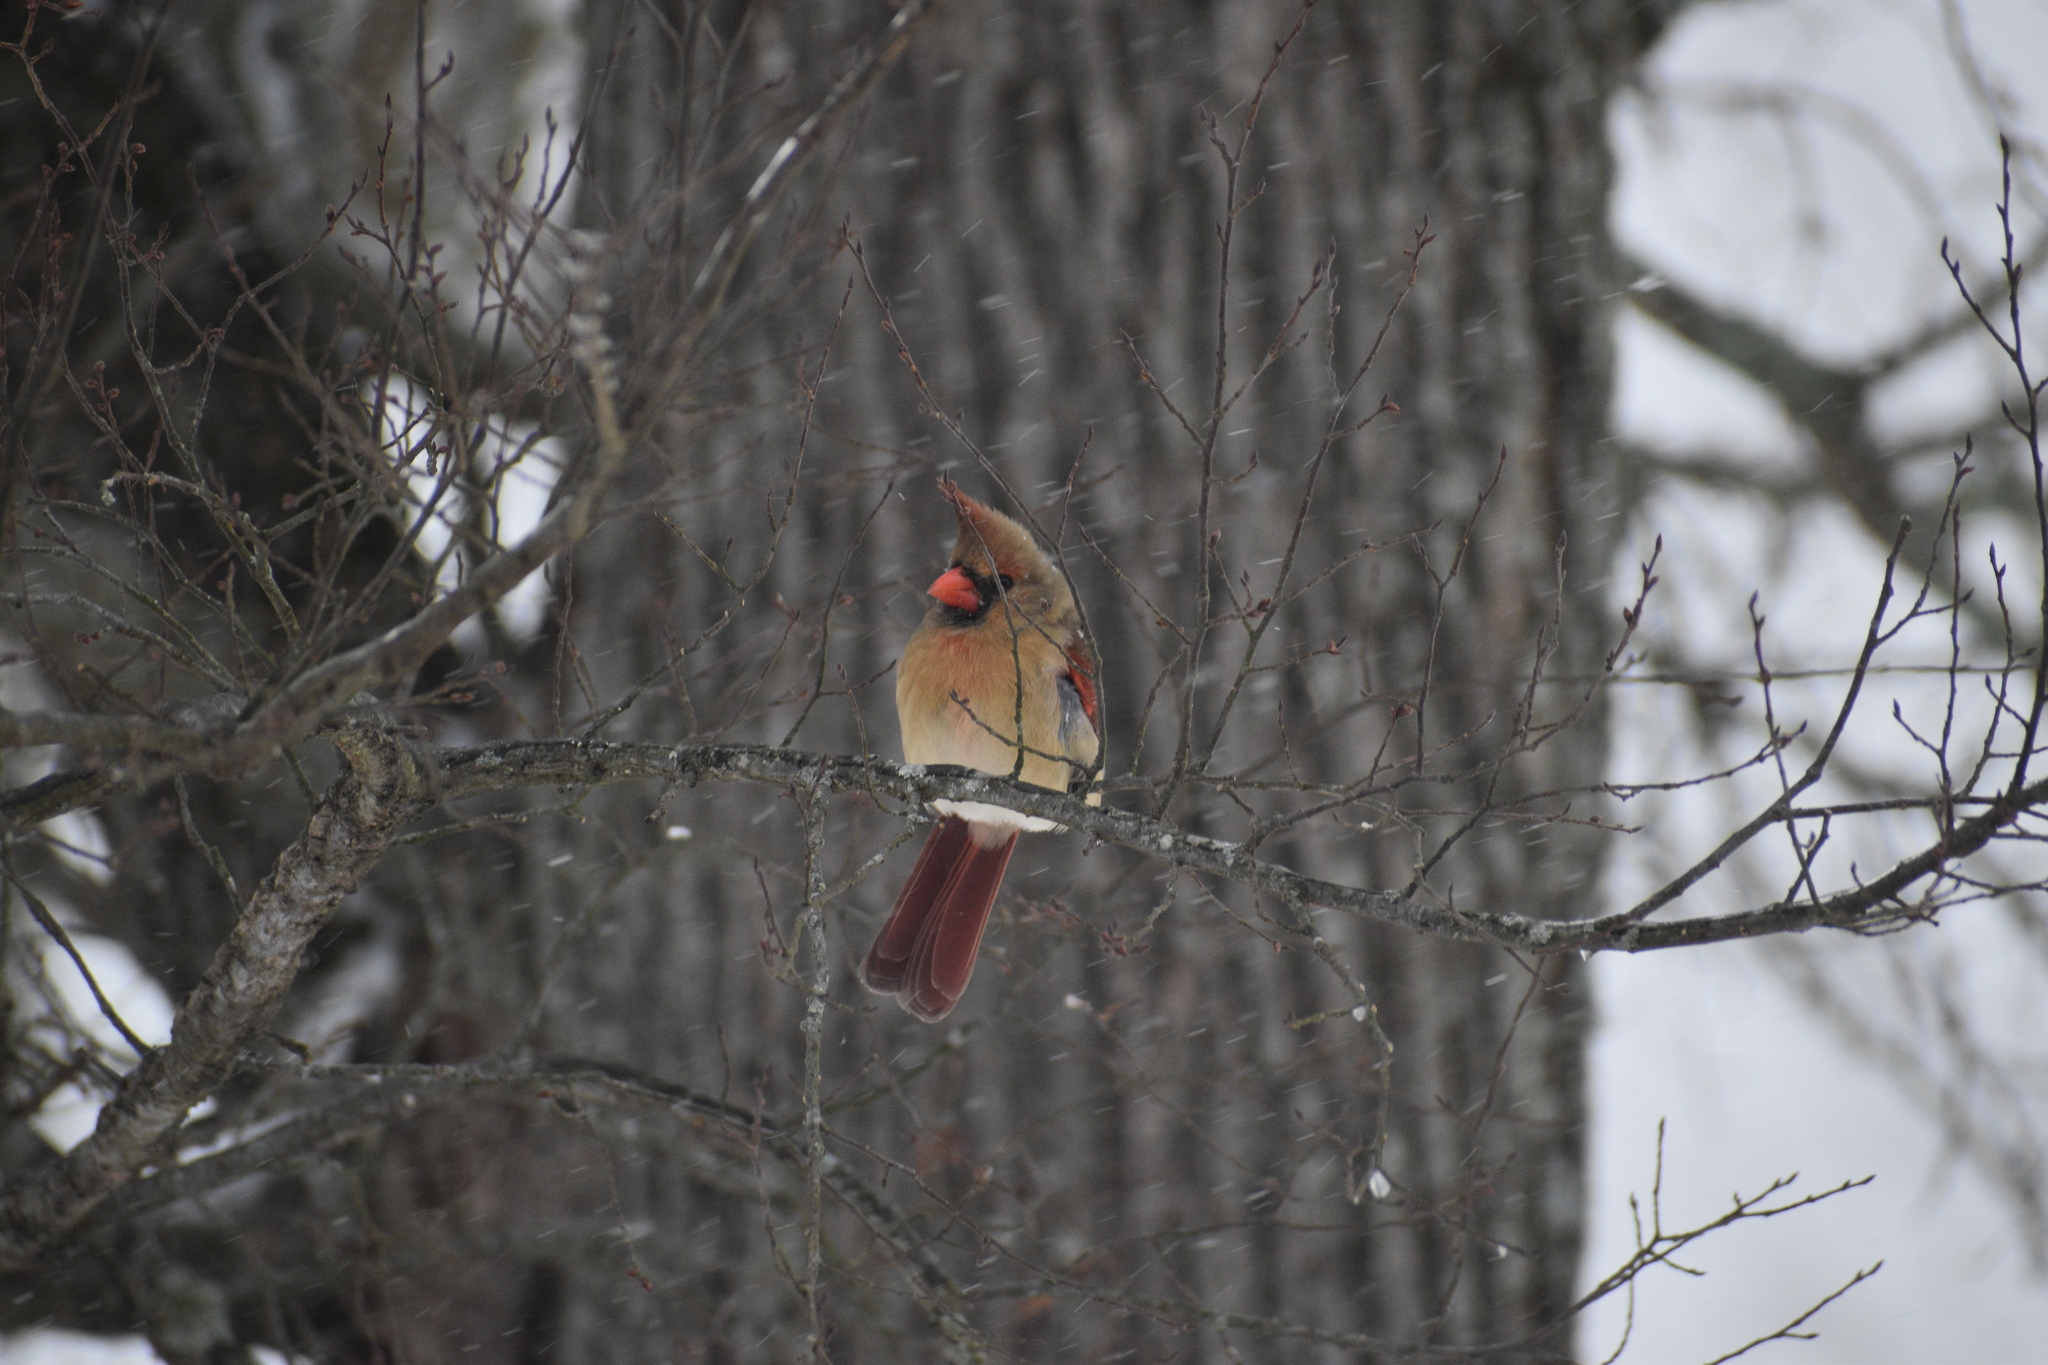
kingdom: Animalia
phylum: Chordata
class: Aves
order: Passeriformes
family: Cardinalidae
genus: Cardinalis
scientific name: Cardinalis cardinalis
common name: Northern cardinal
